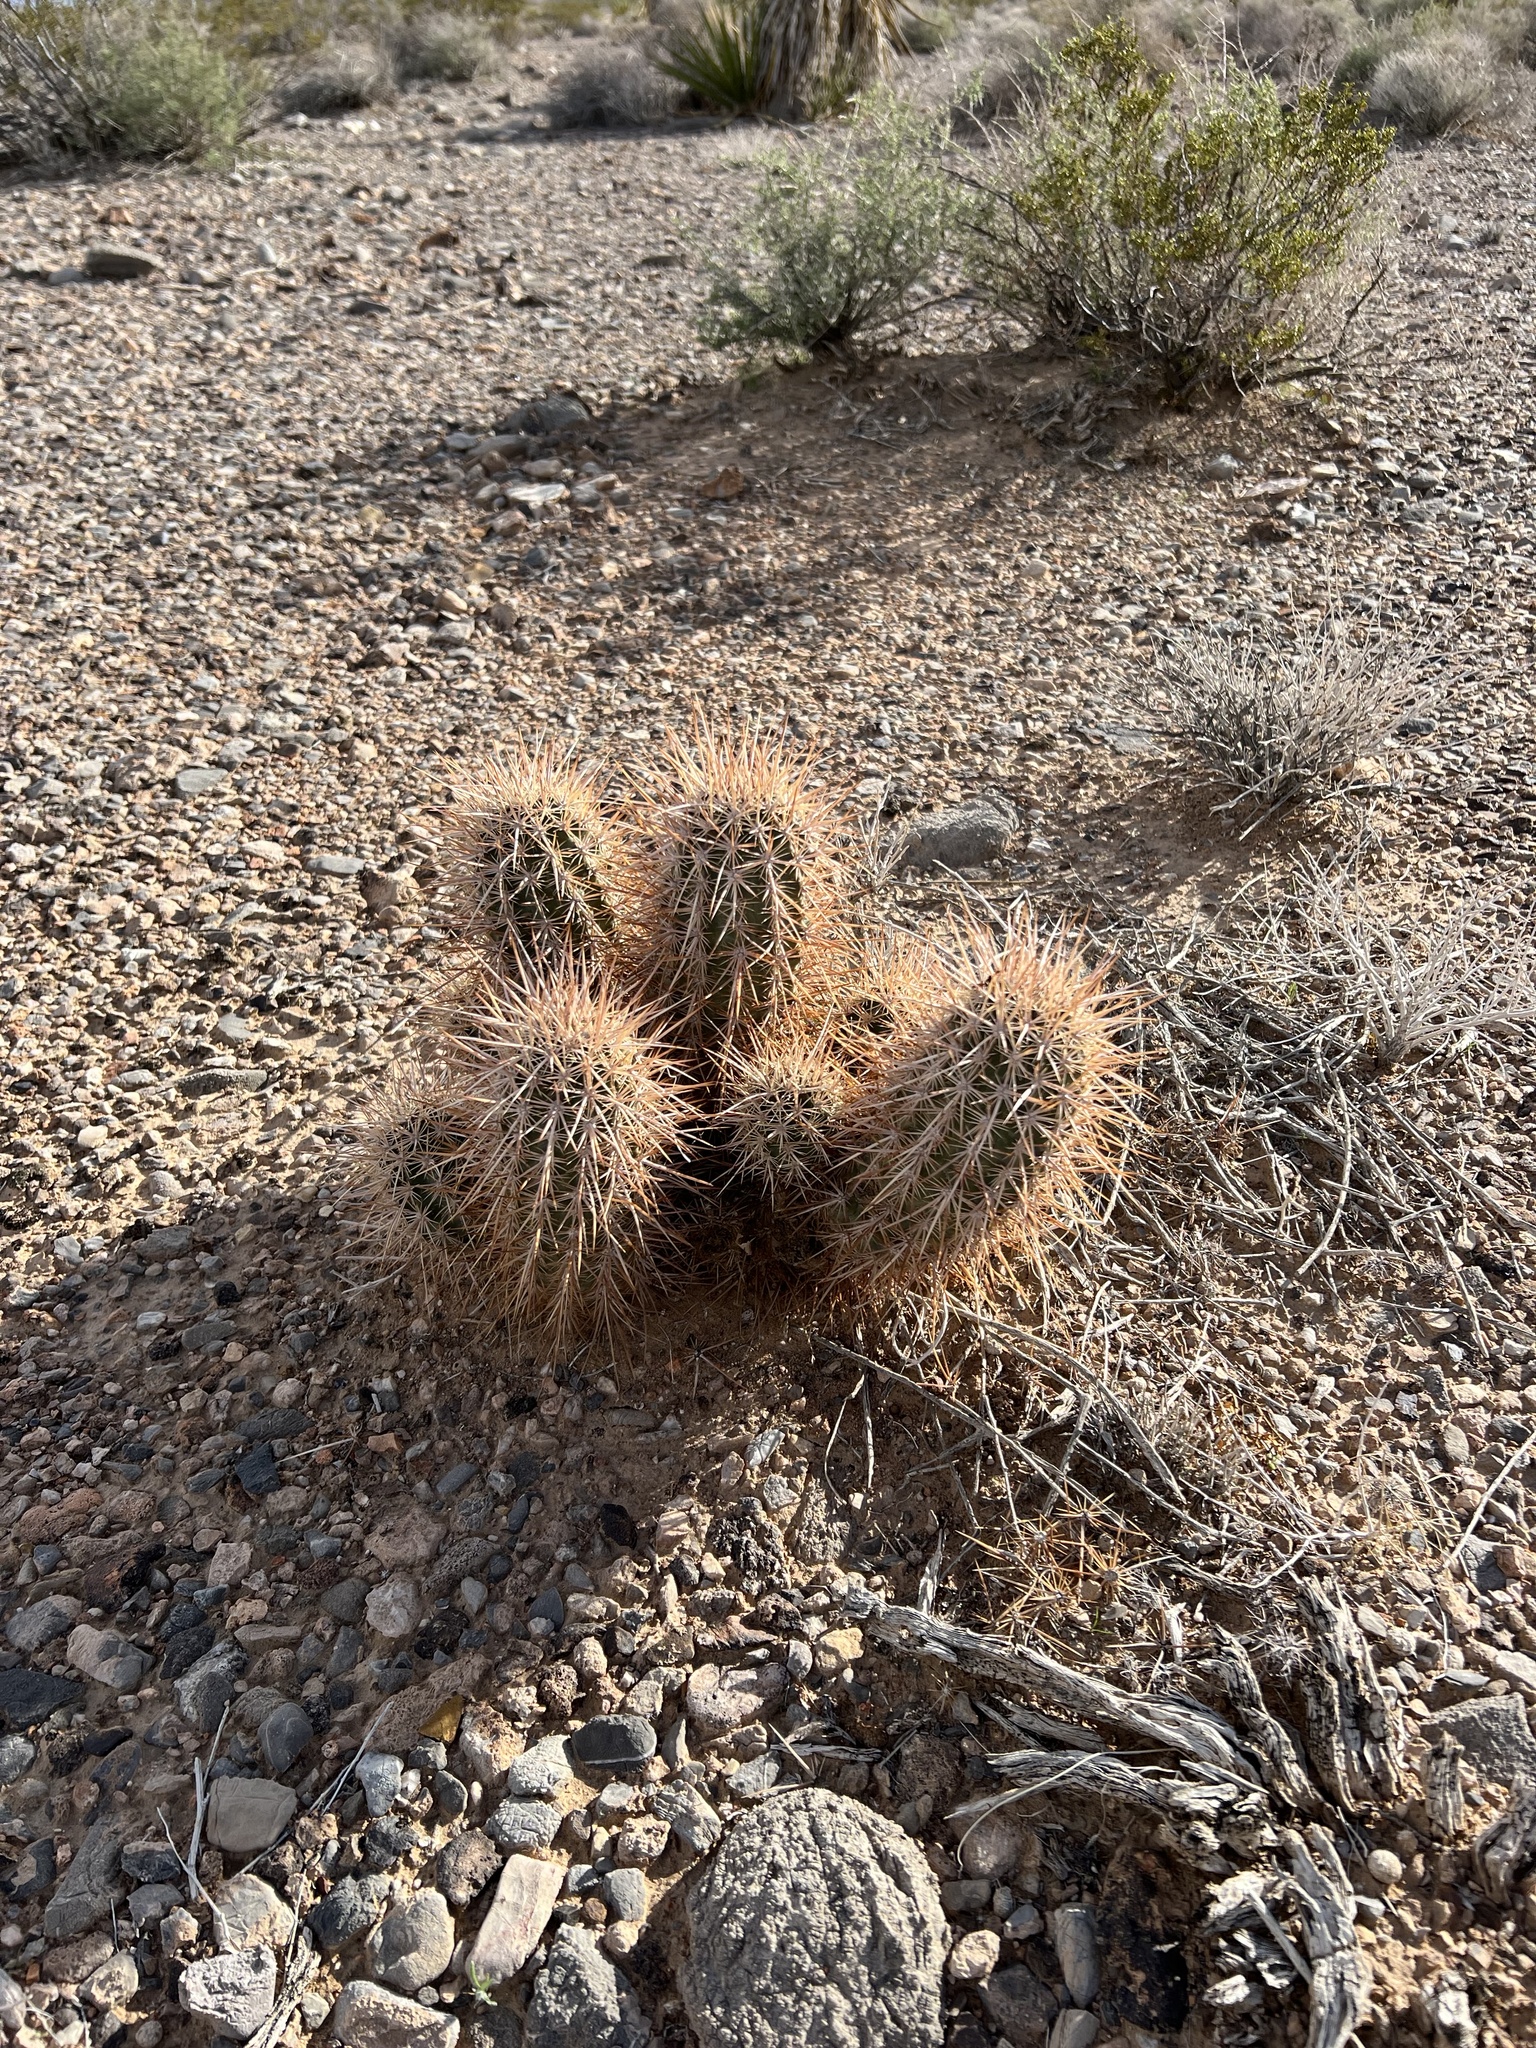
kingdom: Plantae
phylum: Tracheophyta
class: Magnoliopsida
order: Caryophyllales
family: Cactaceae
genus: Echinocereus
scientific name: Echinocereus engelmannii
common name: Engelmann's hedgehog cactus
